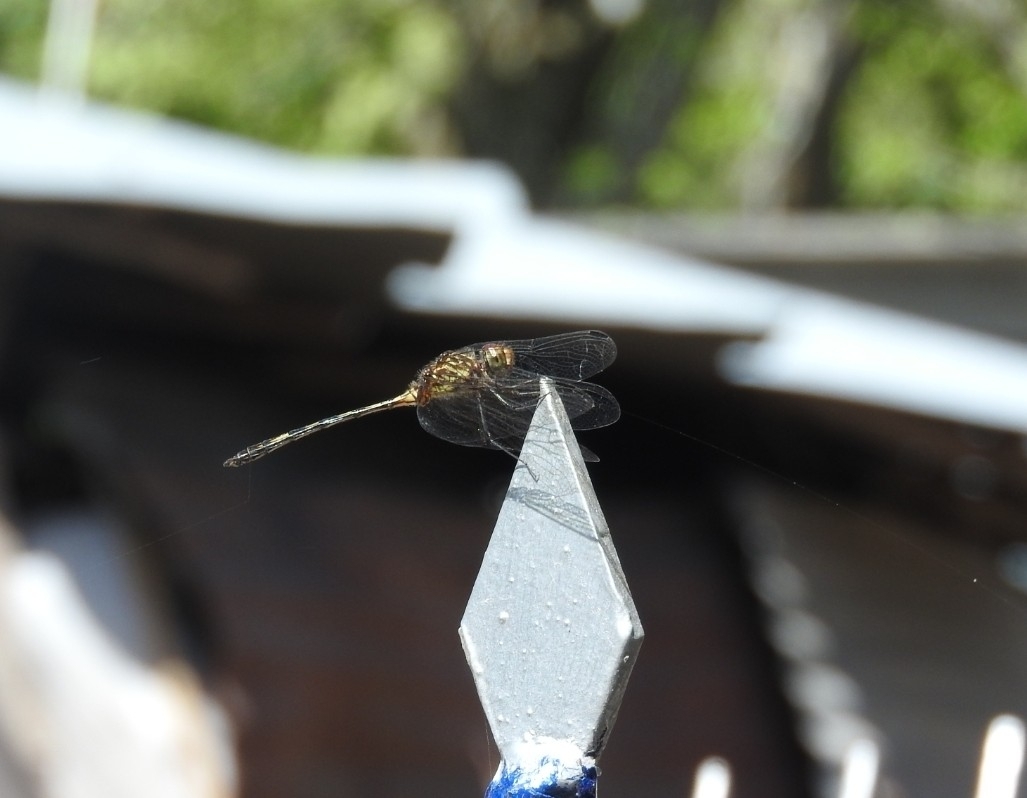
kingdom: Animalia
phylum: Arthropoda
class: Insecta
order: Odonata
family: Libellulidae
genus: Dythemis
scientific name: Dythemis sterilis
